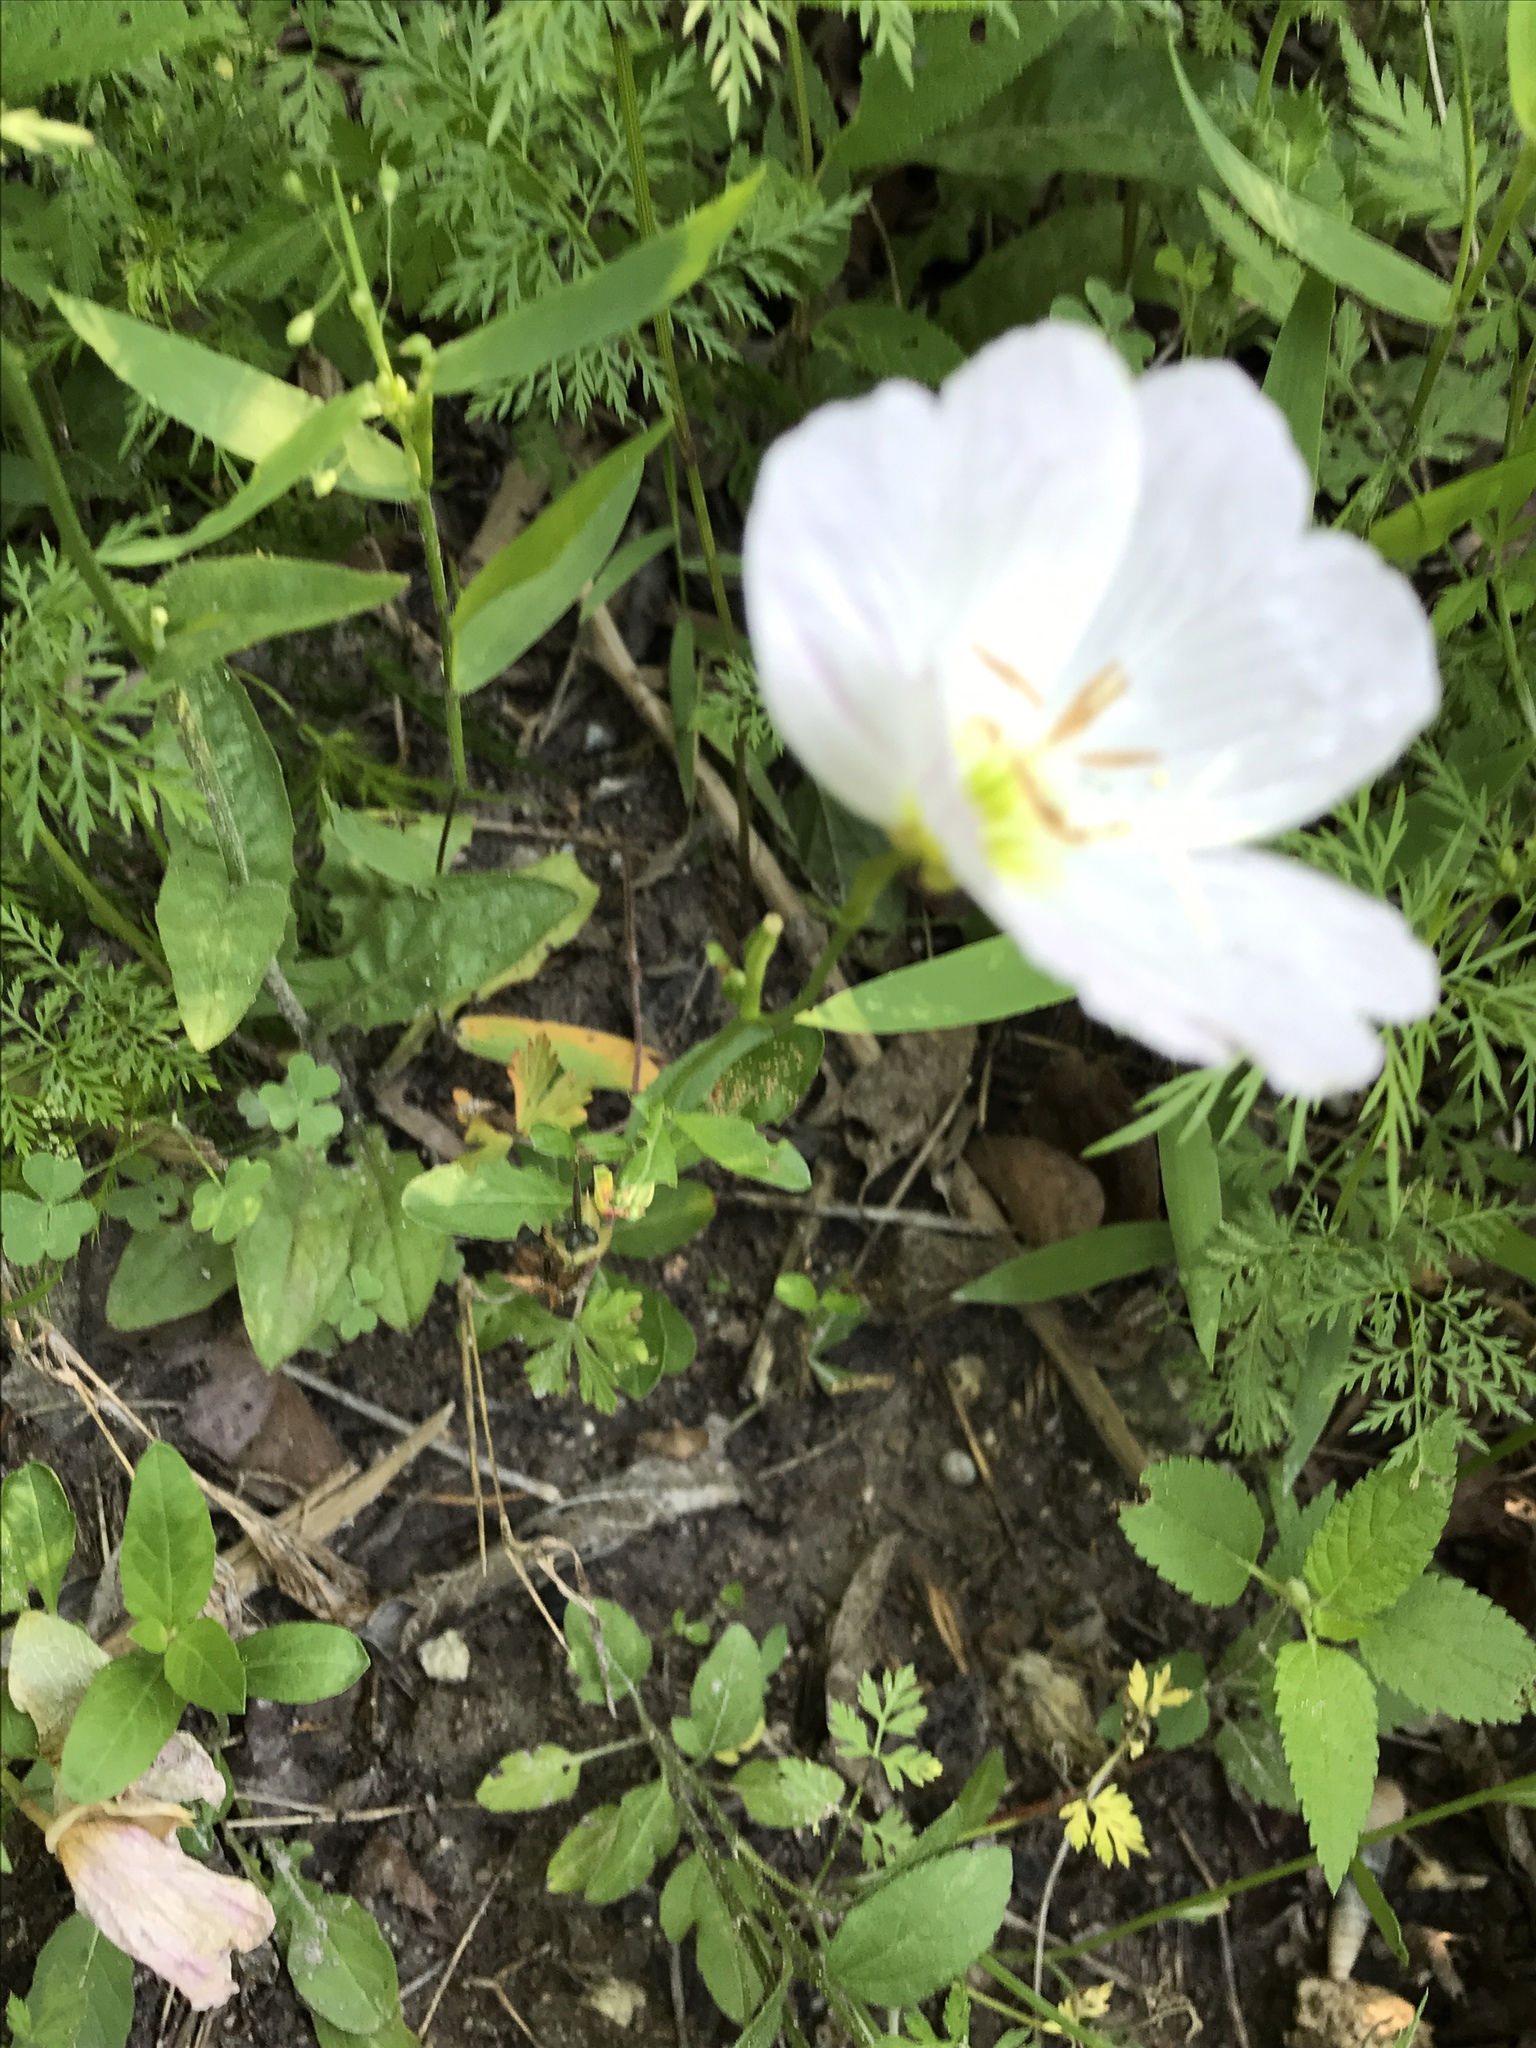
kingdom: Plantae
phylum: Tracheophyta
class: Magnoliopsida
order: Myrtales
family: Onagraceae
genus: Oenothera
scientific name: Oenothera speciosa
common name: White evening-primrose
